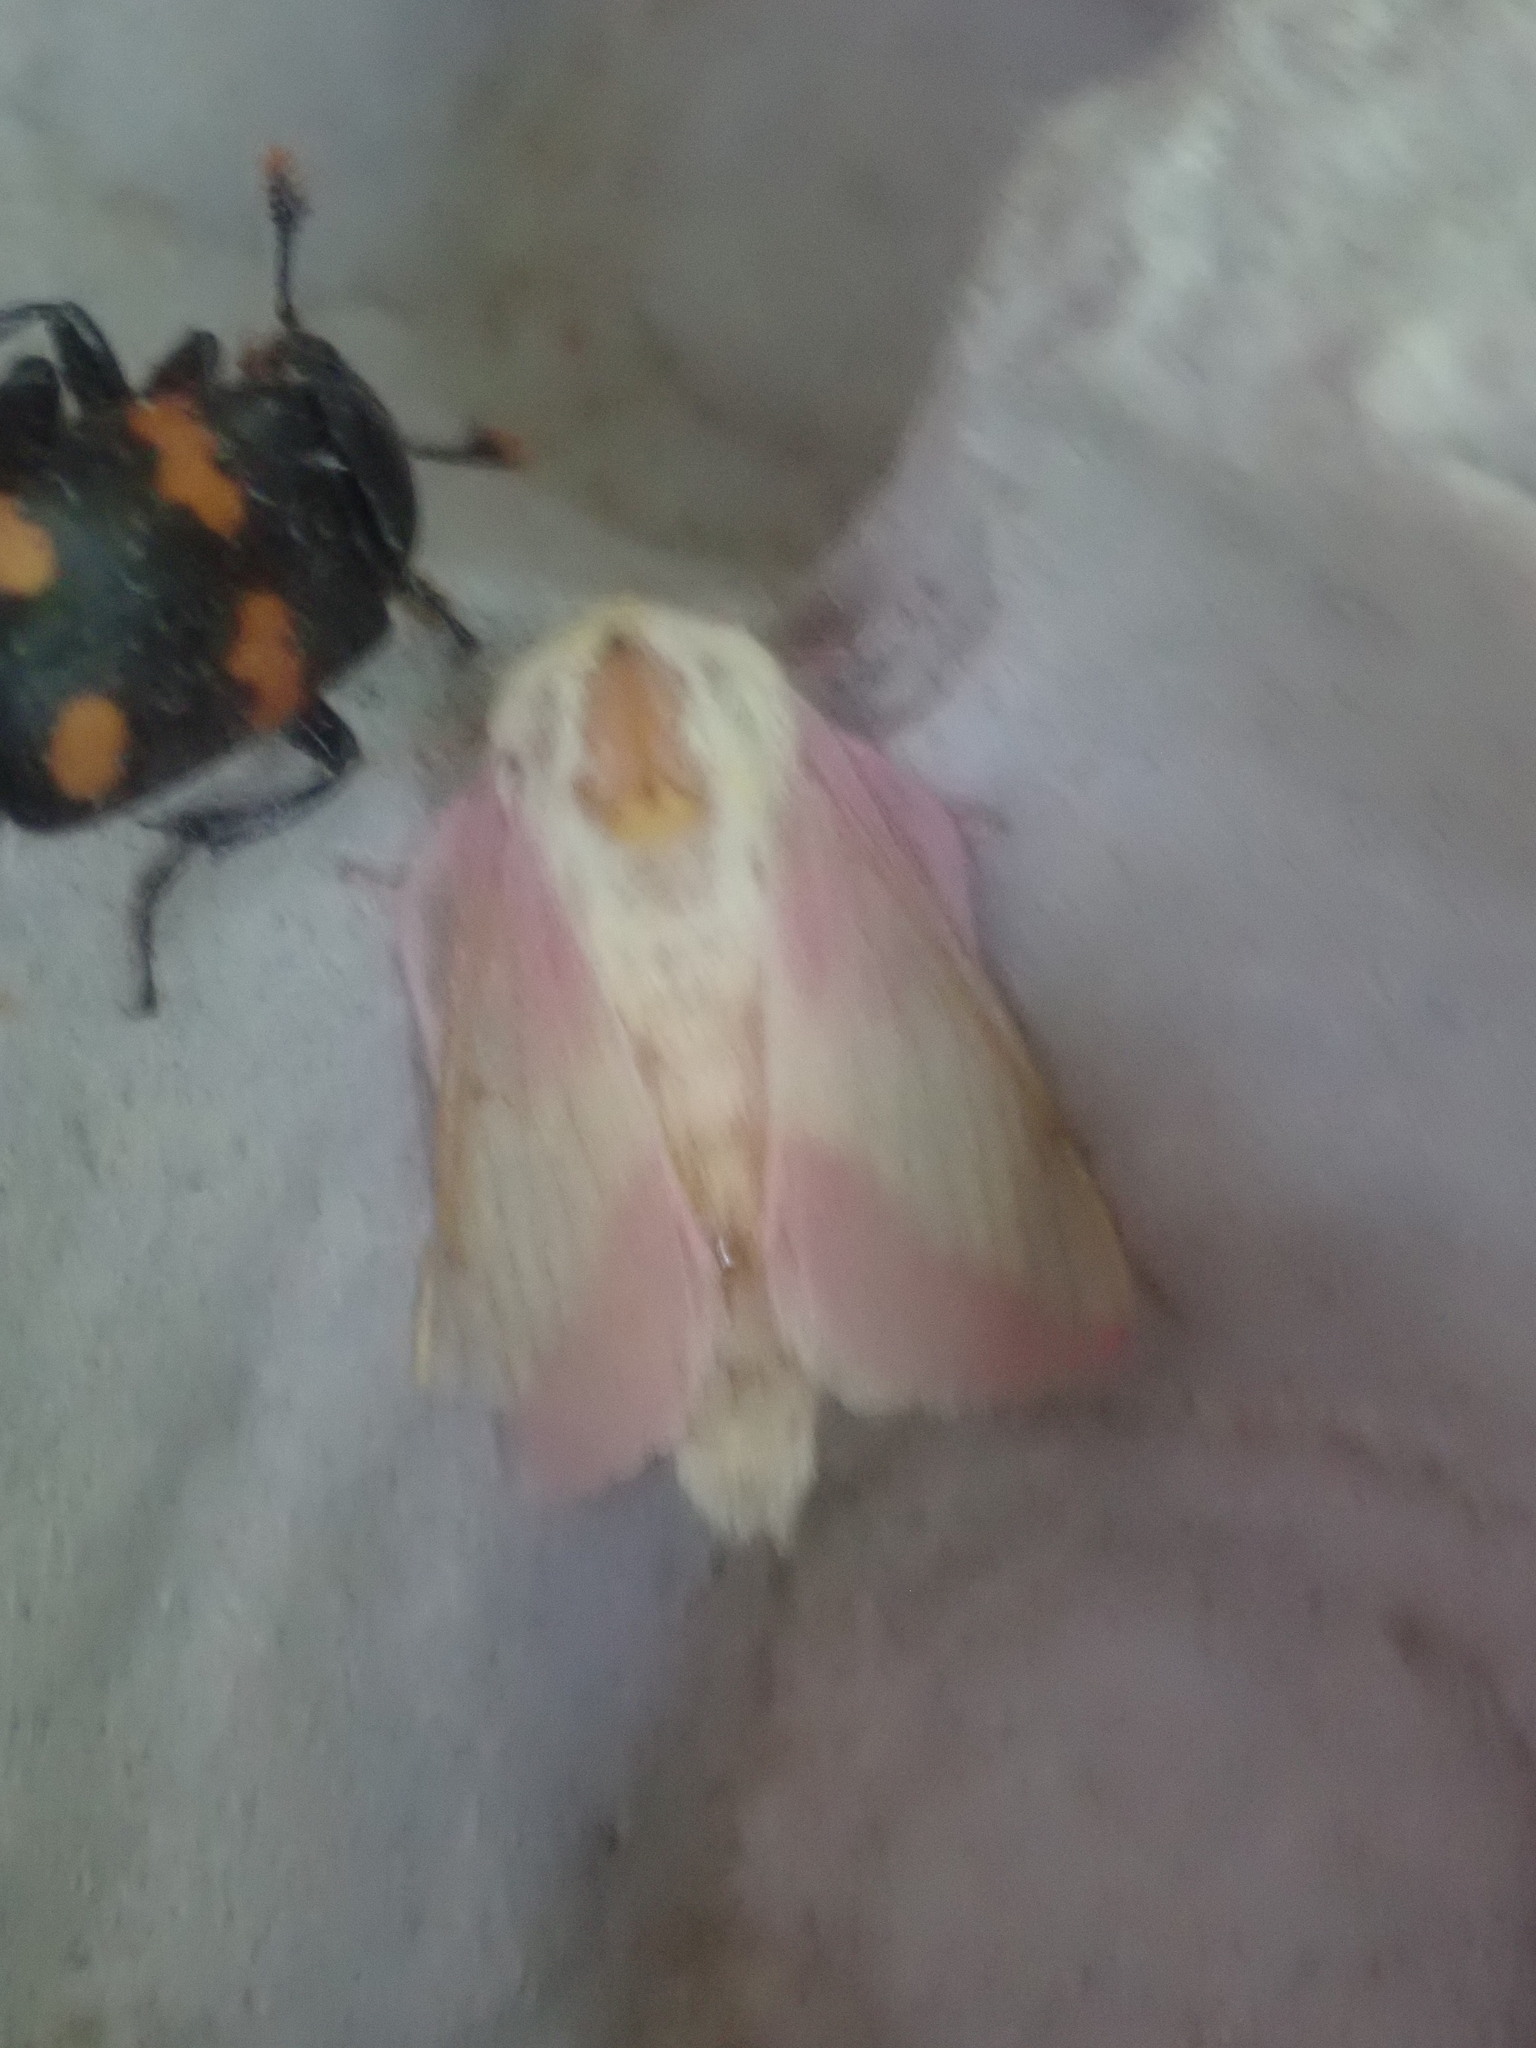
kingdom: Animalia
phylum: Arthropoda
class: Insecta
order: Lepidoptera
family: Saturniidae
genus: Dryocampa
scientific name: Dryocampa rubicunda
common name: Rosy maple moth
